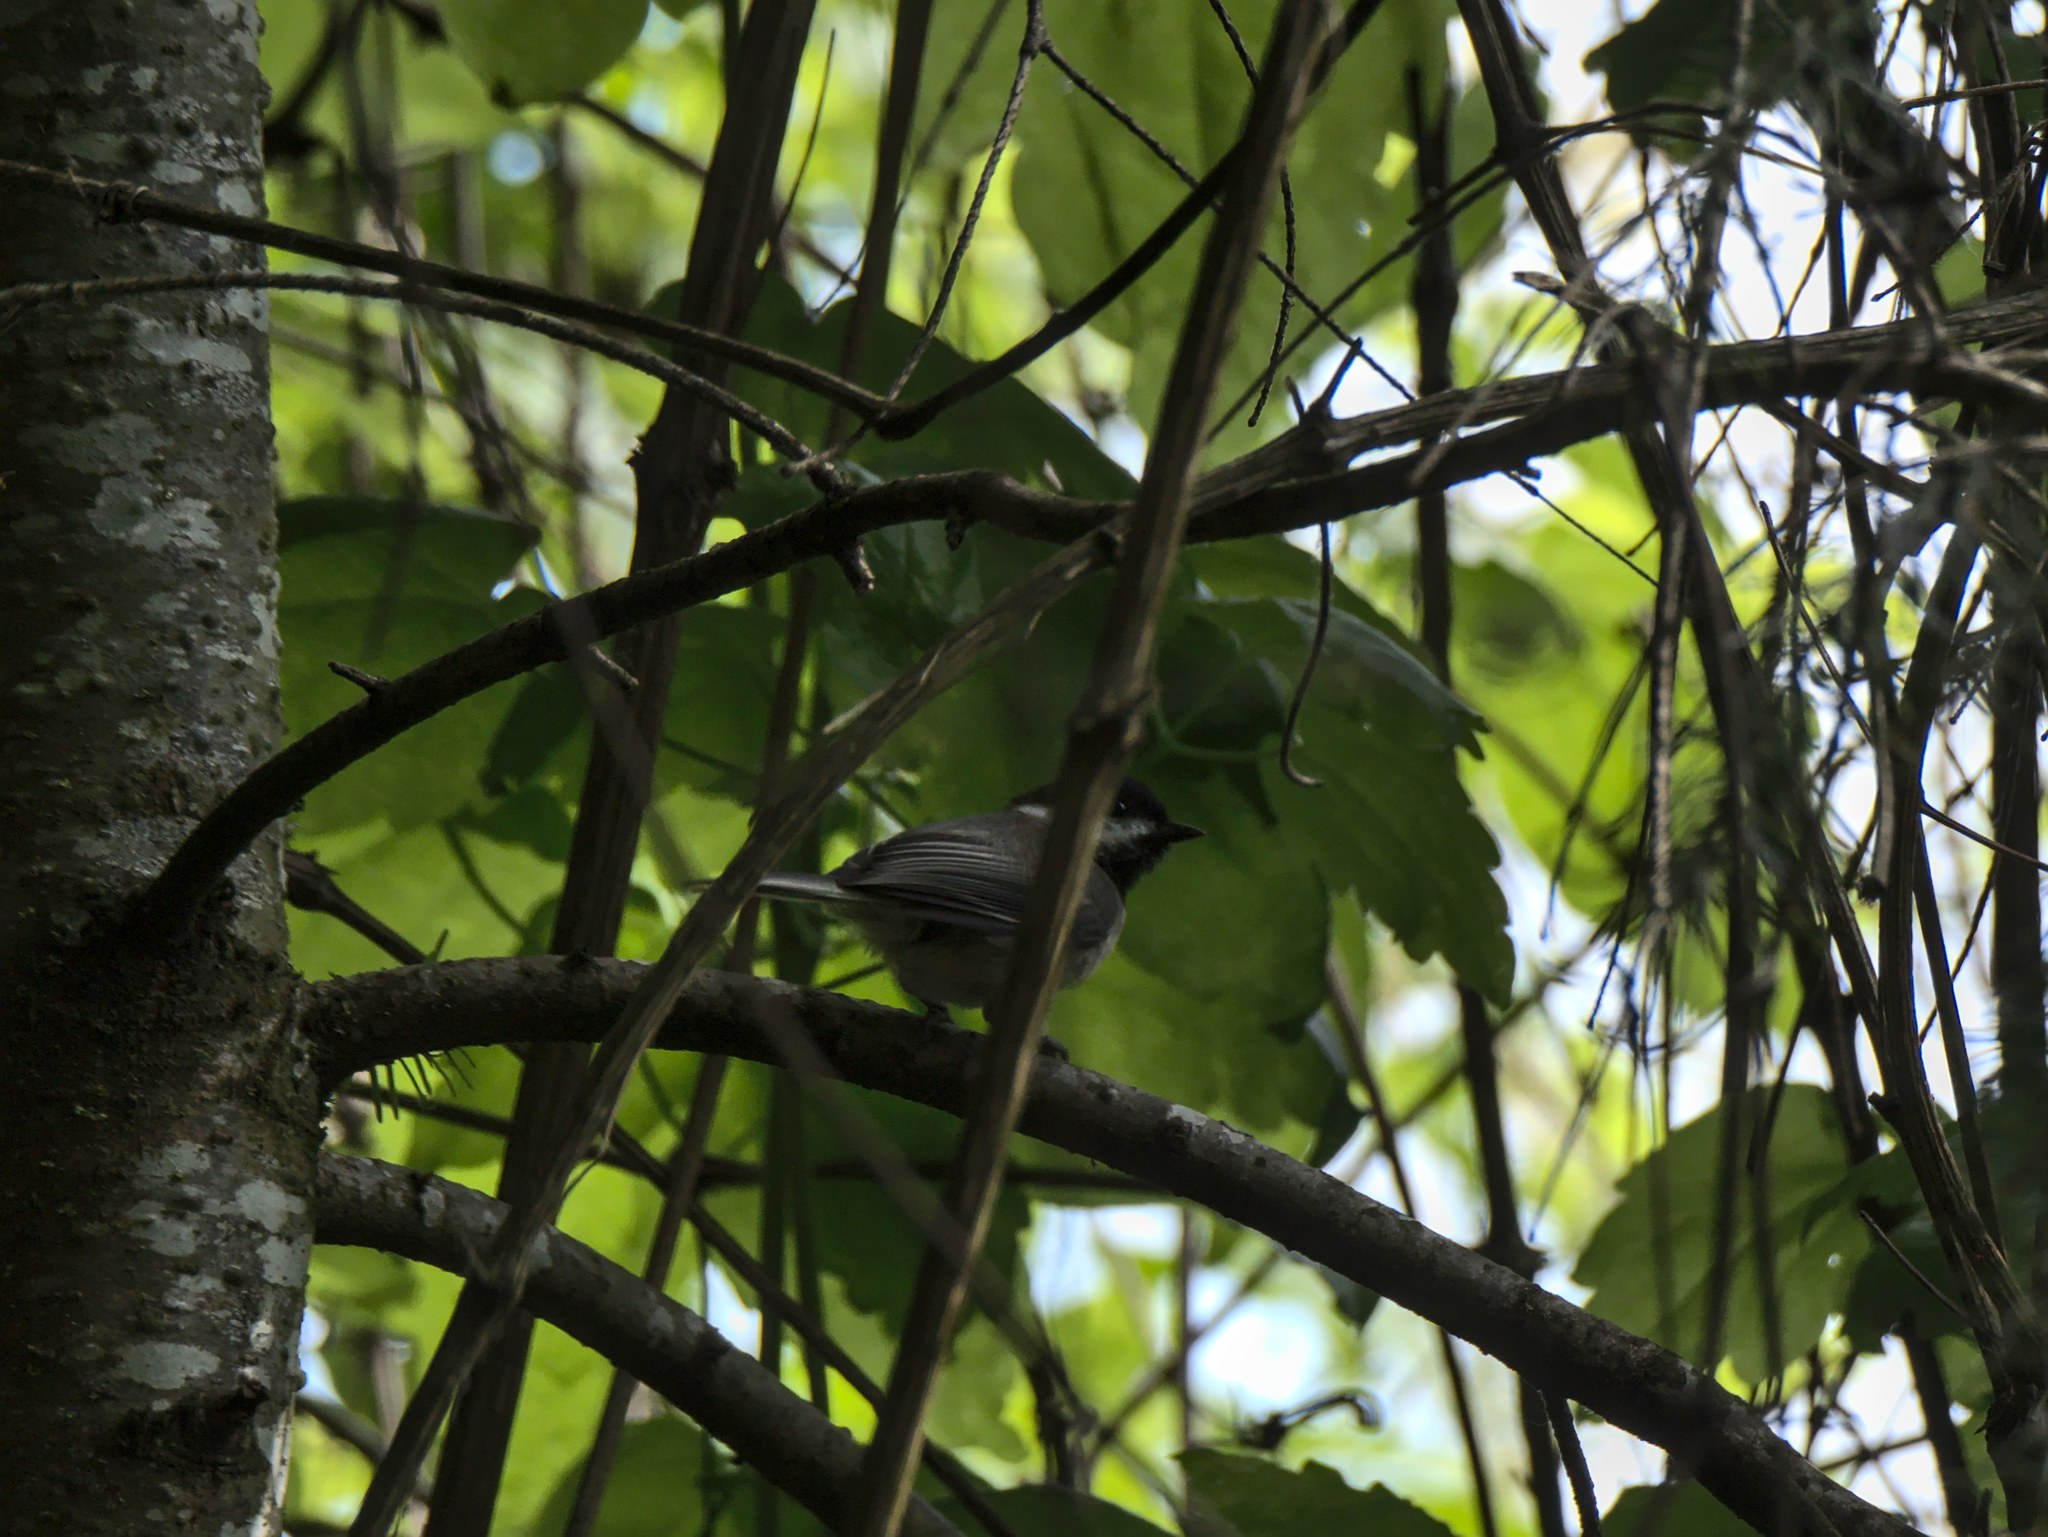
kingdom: Animalia
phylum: Chordata
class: Aves
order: Passeriformes
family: Paridae
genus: Poecile
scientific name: Poecile atricapillus
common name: Black-capped chickadee
